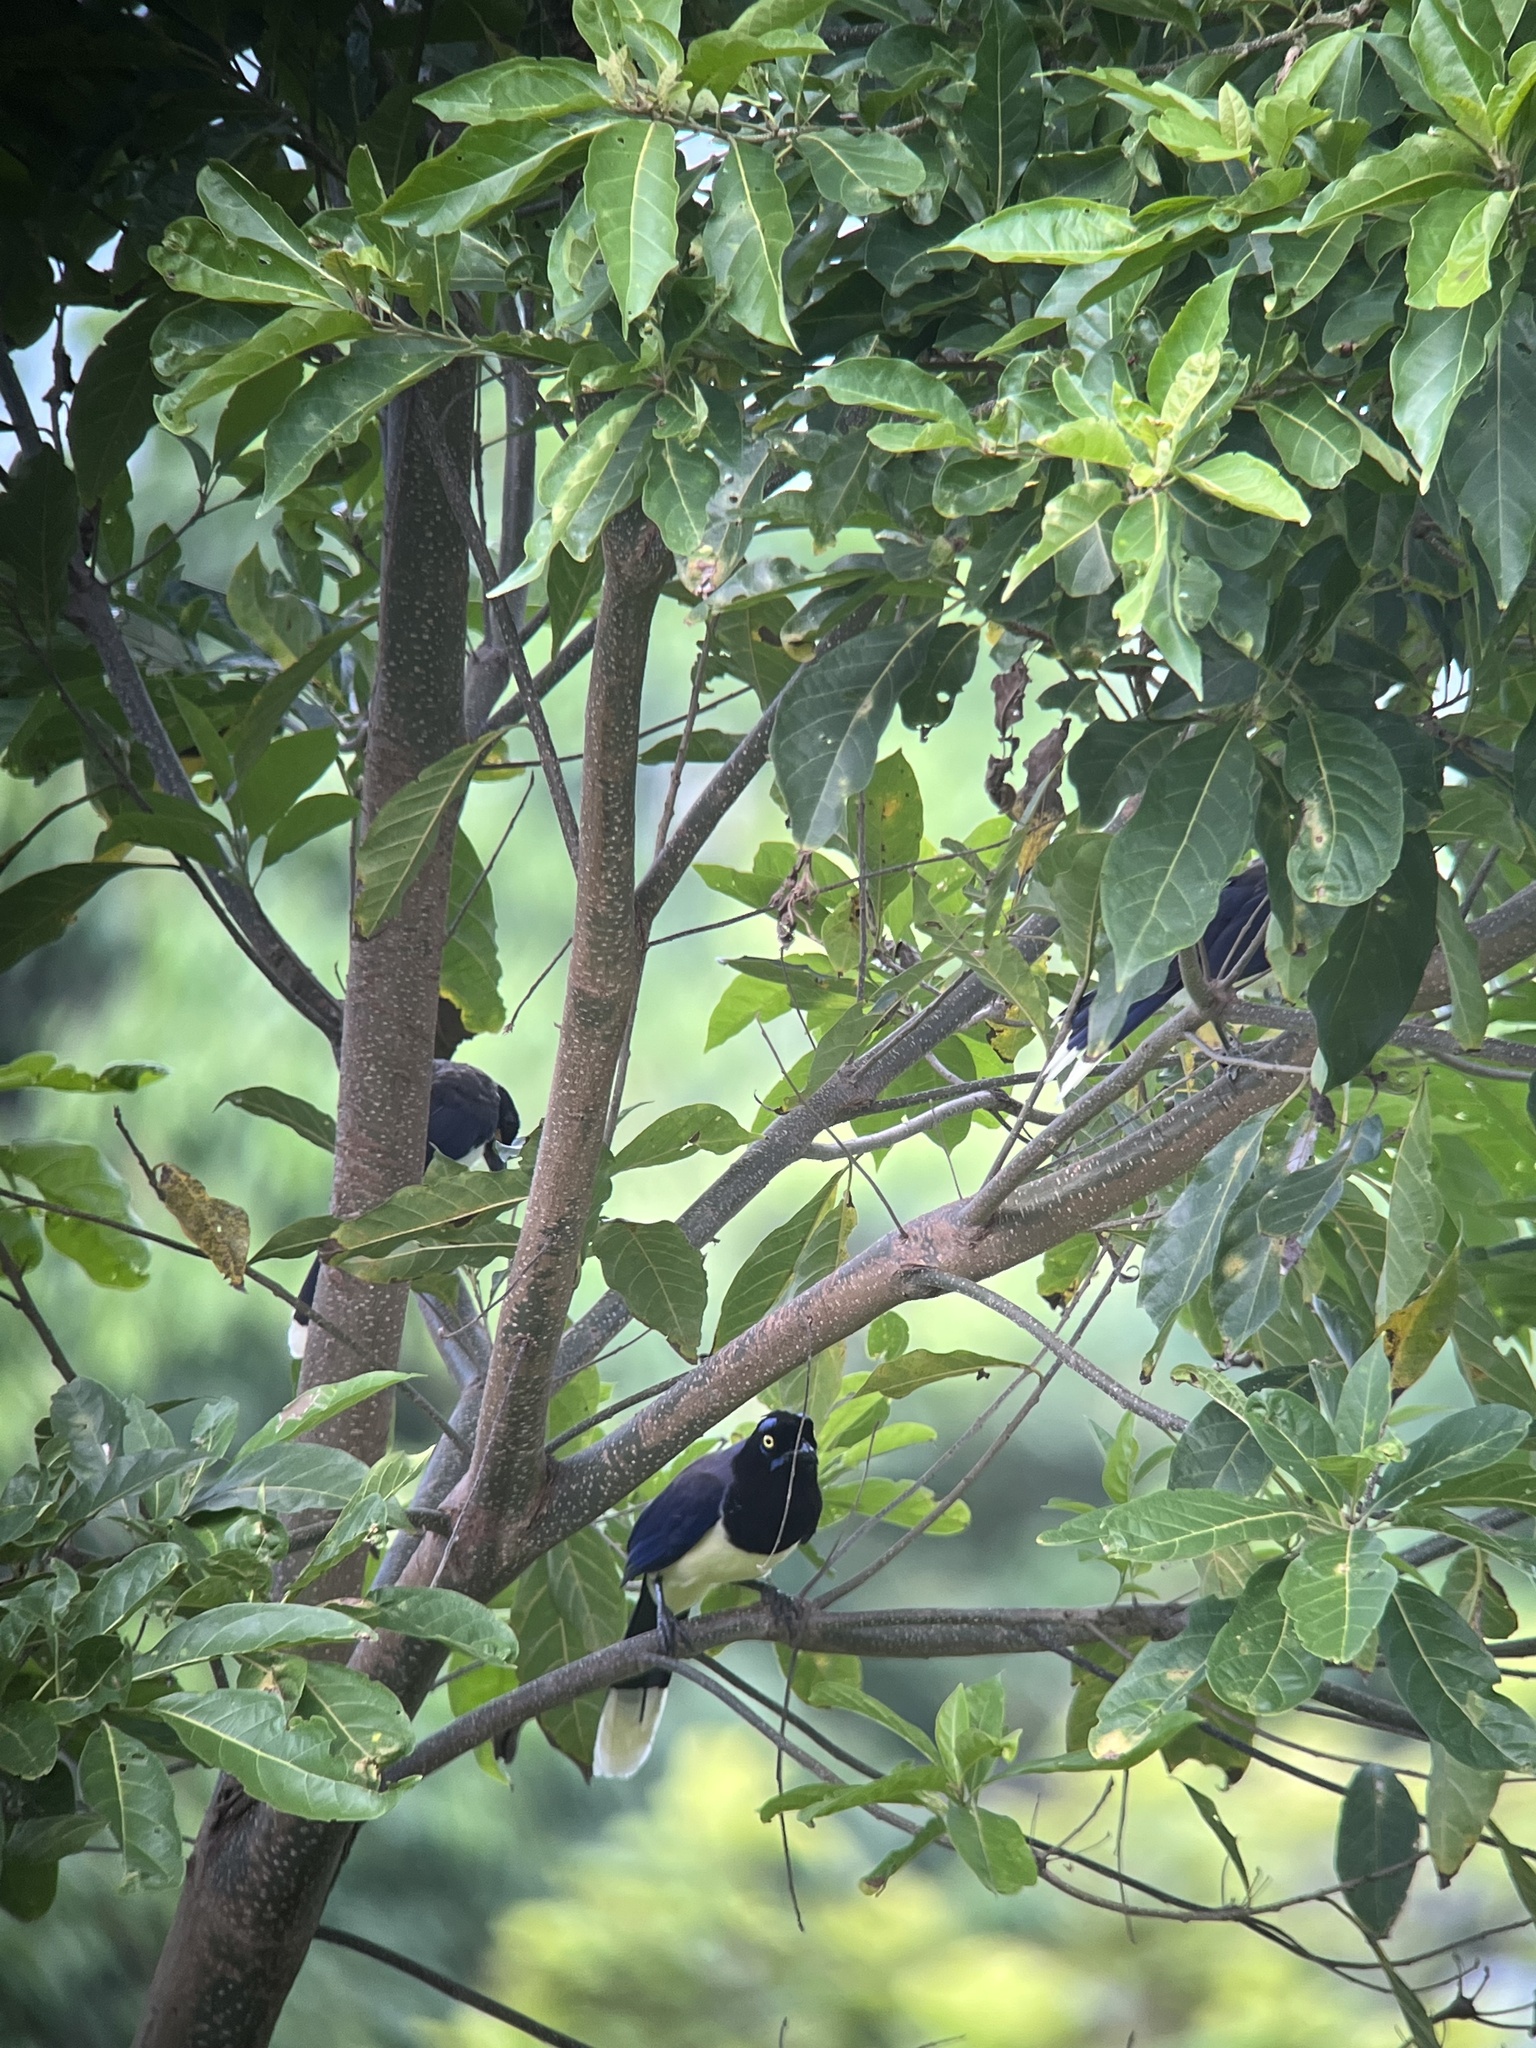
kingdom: Animalia
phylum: Chordata
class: Aves
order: Passeriformes
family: Corvidae
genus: Cyanocorax
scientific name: Cyanocorax affinis
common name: Black-chested jay
